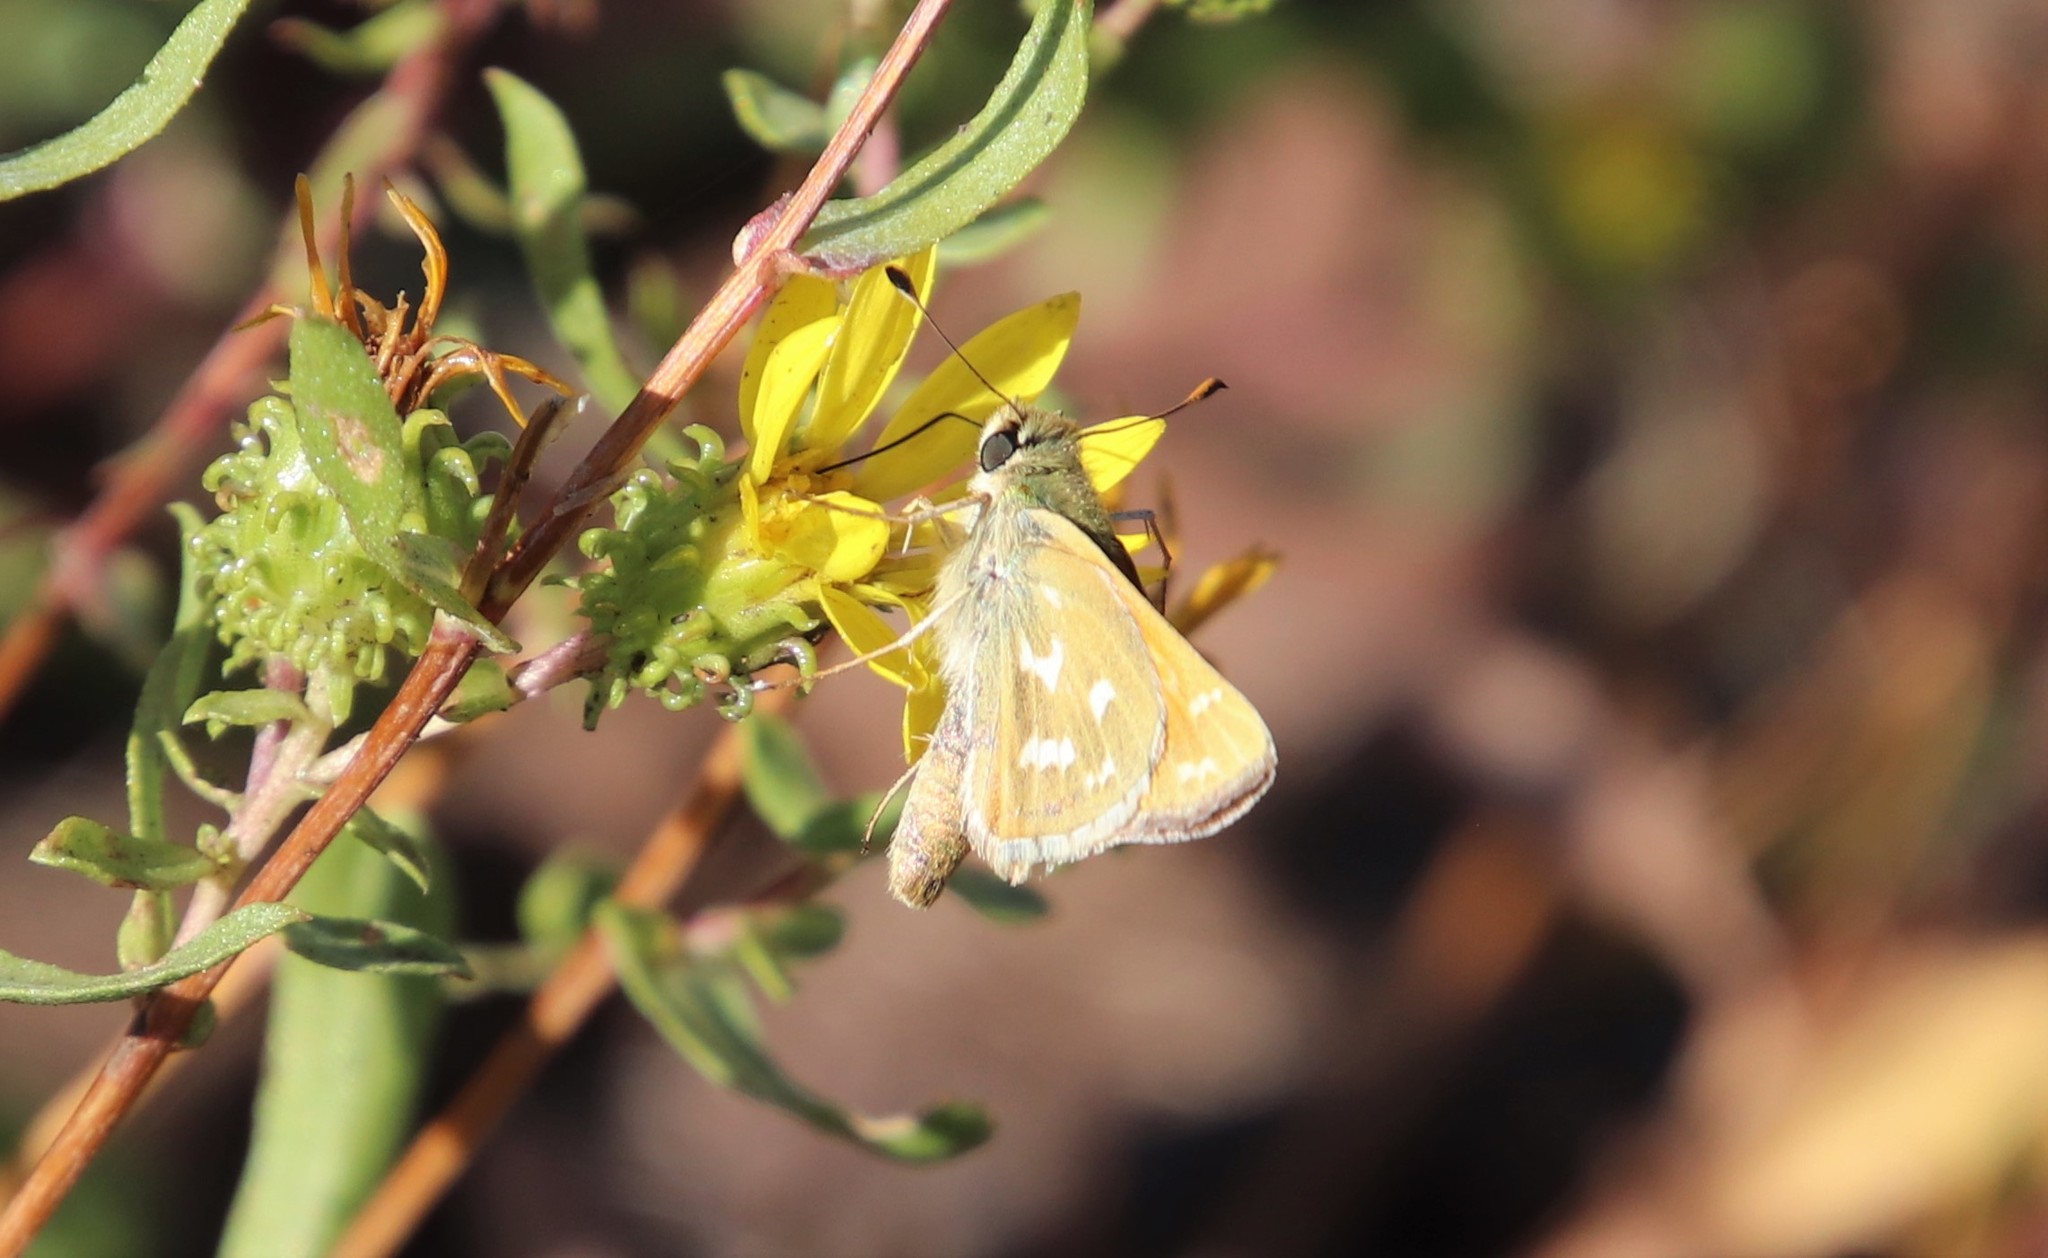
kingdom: Animalia
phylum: Arthropoda
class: Insecta
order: Lepidoptera
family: Hesperiidae
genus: Hesperia
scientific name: Hesperia comma
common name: Common branded skipper
